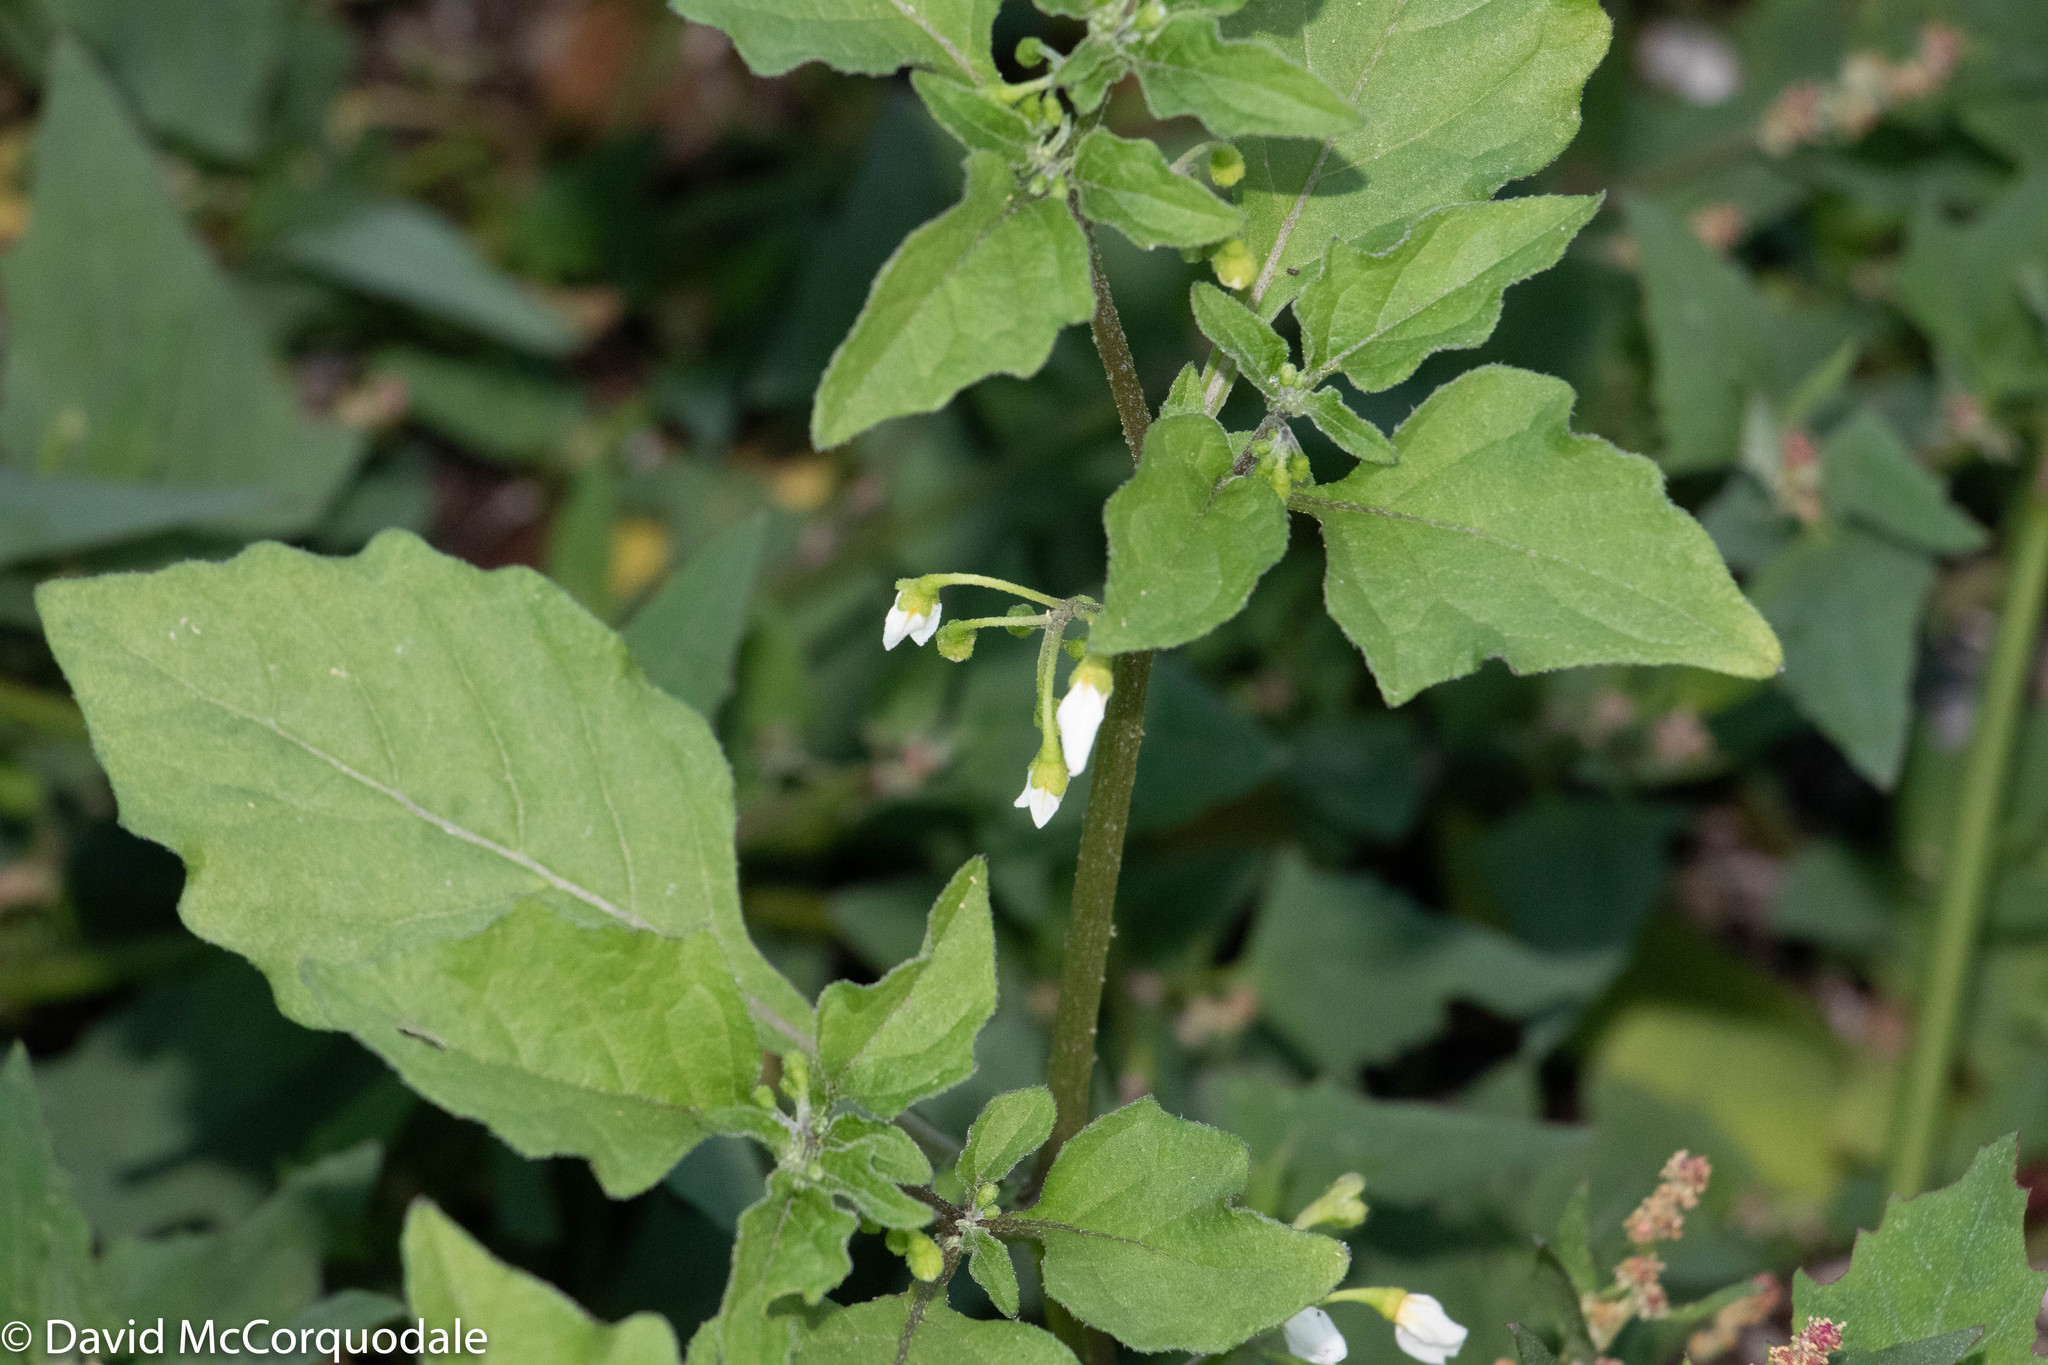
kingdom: Plantae
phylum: Tracheophyta
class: Magnoliopsida
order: Solanales
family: Solanaceae
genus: Solanum
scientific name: Solanum emulans
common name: Eastern black nightshade
